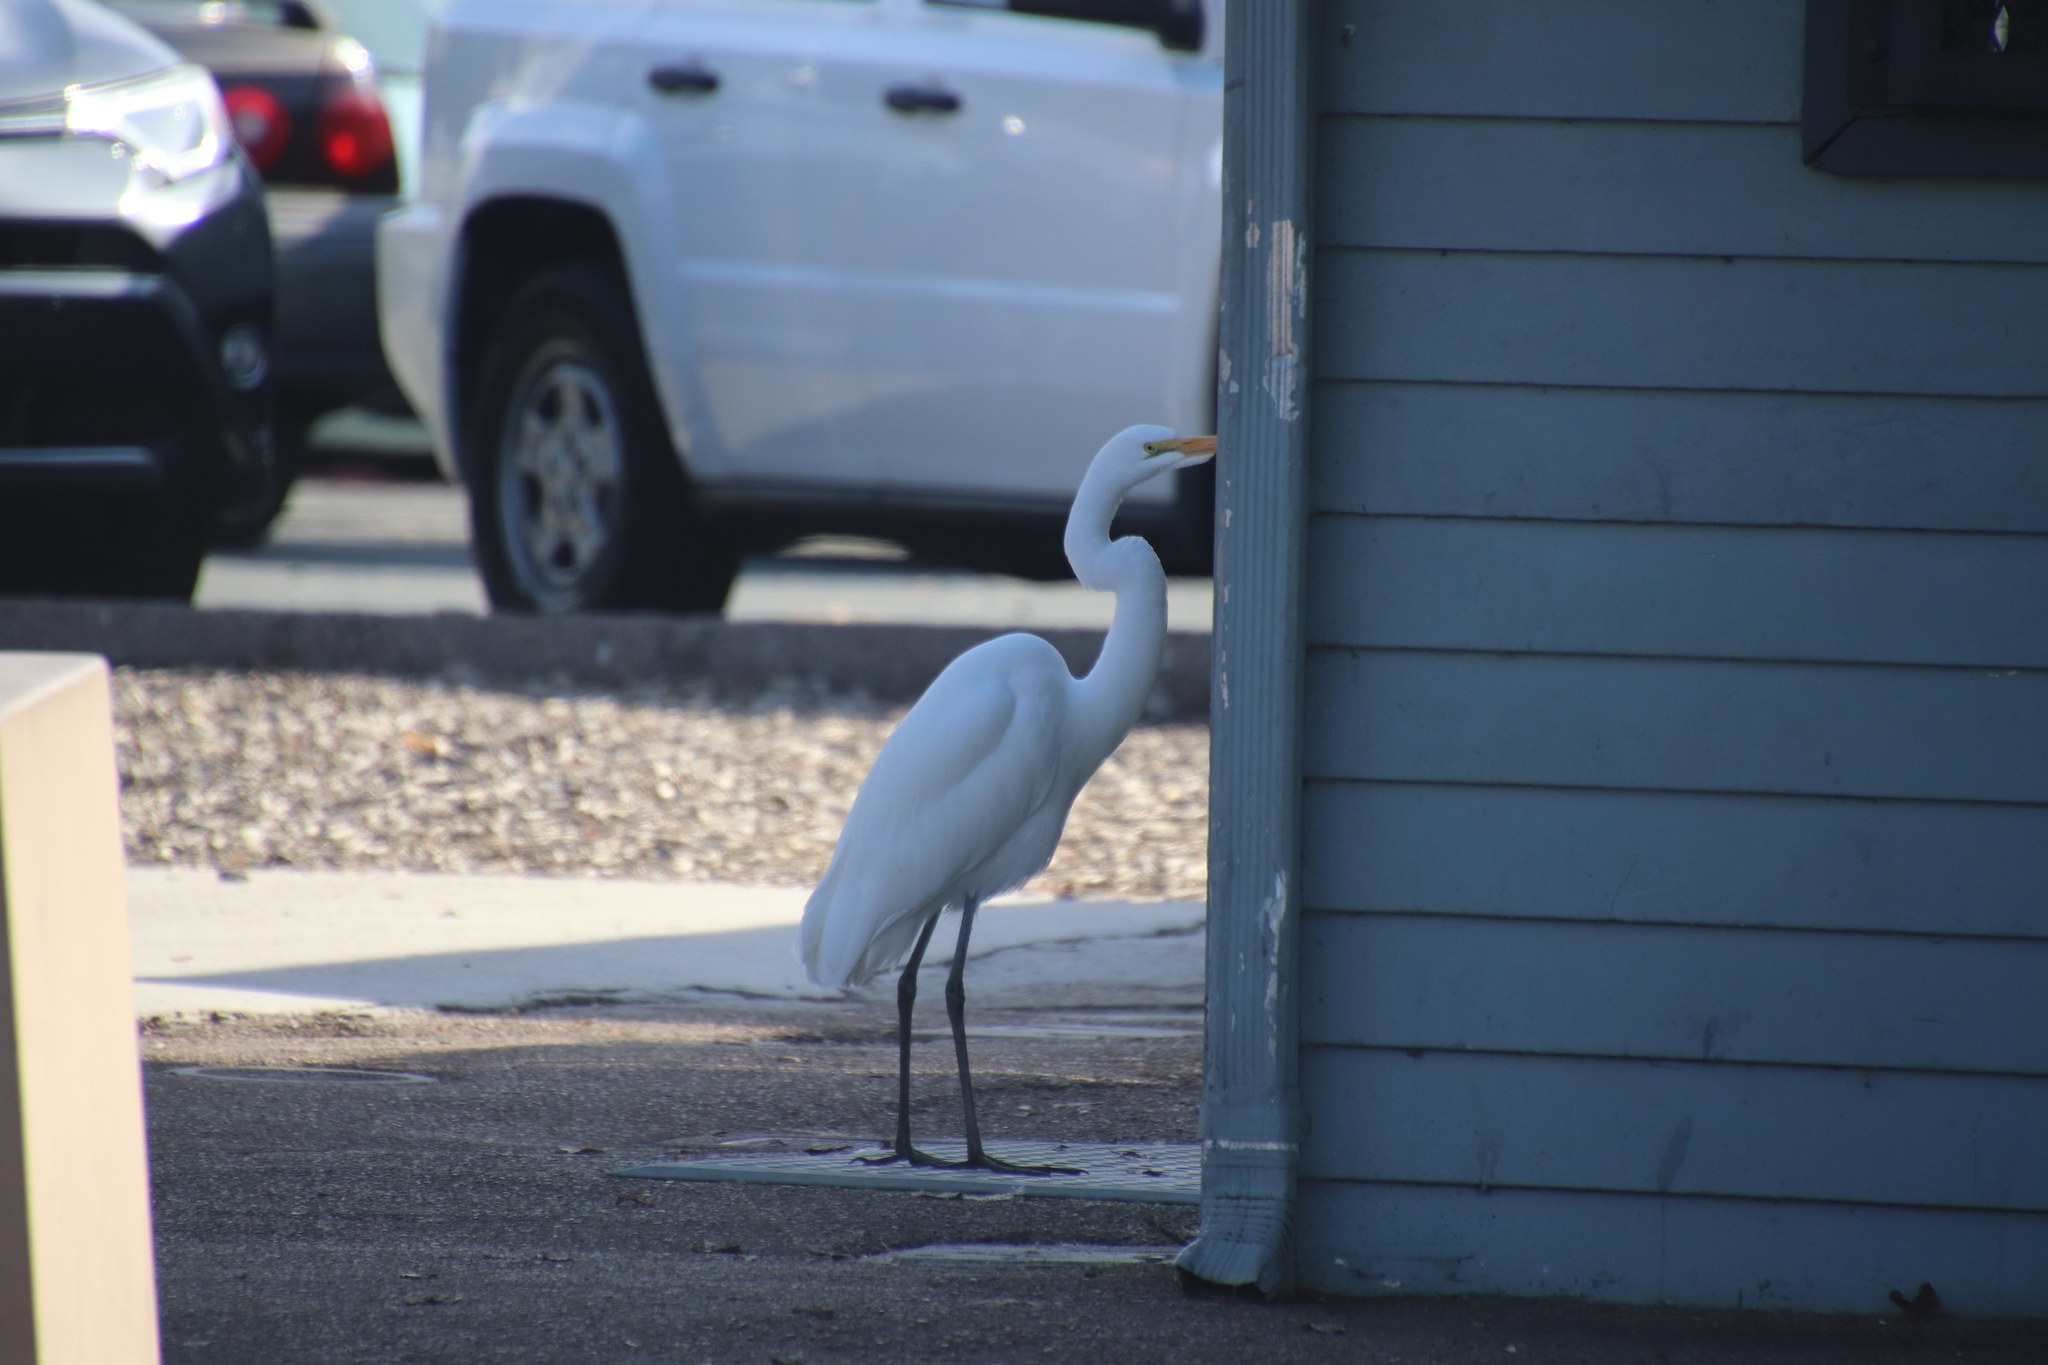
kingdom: Animalia
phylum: Chordata
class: Aves
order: Pelecaniformes
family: Ardeidae
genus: Ardea
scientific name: Ardea alba
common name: Great egret
